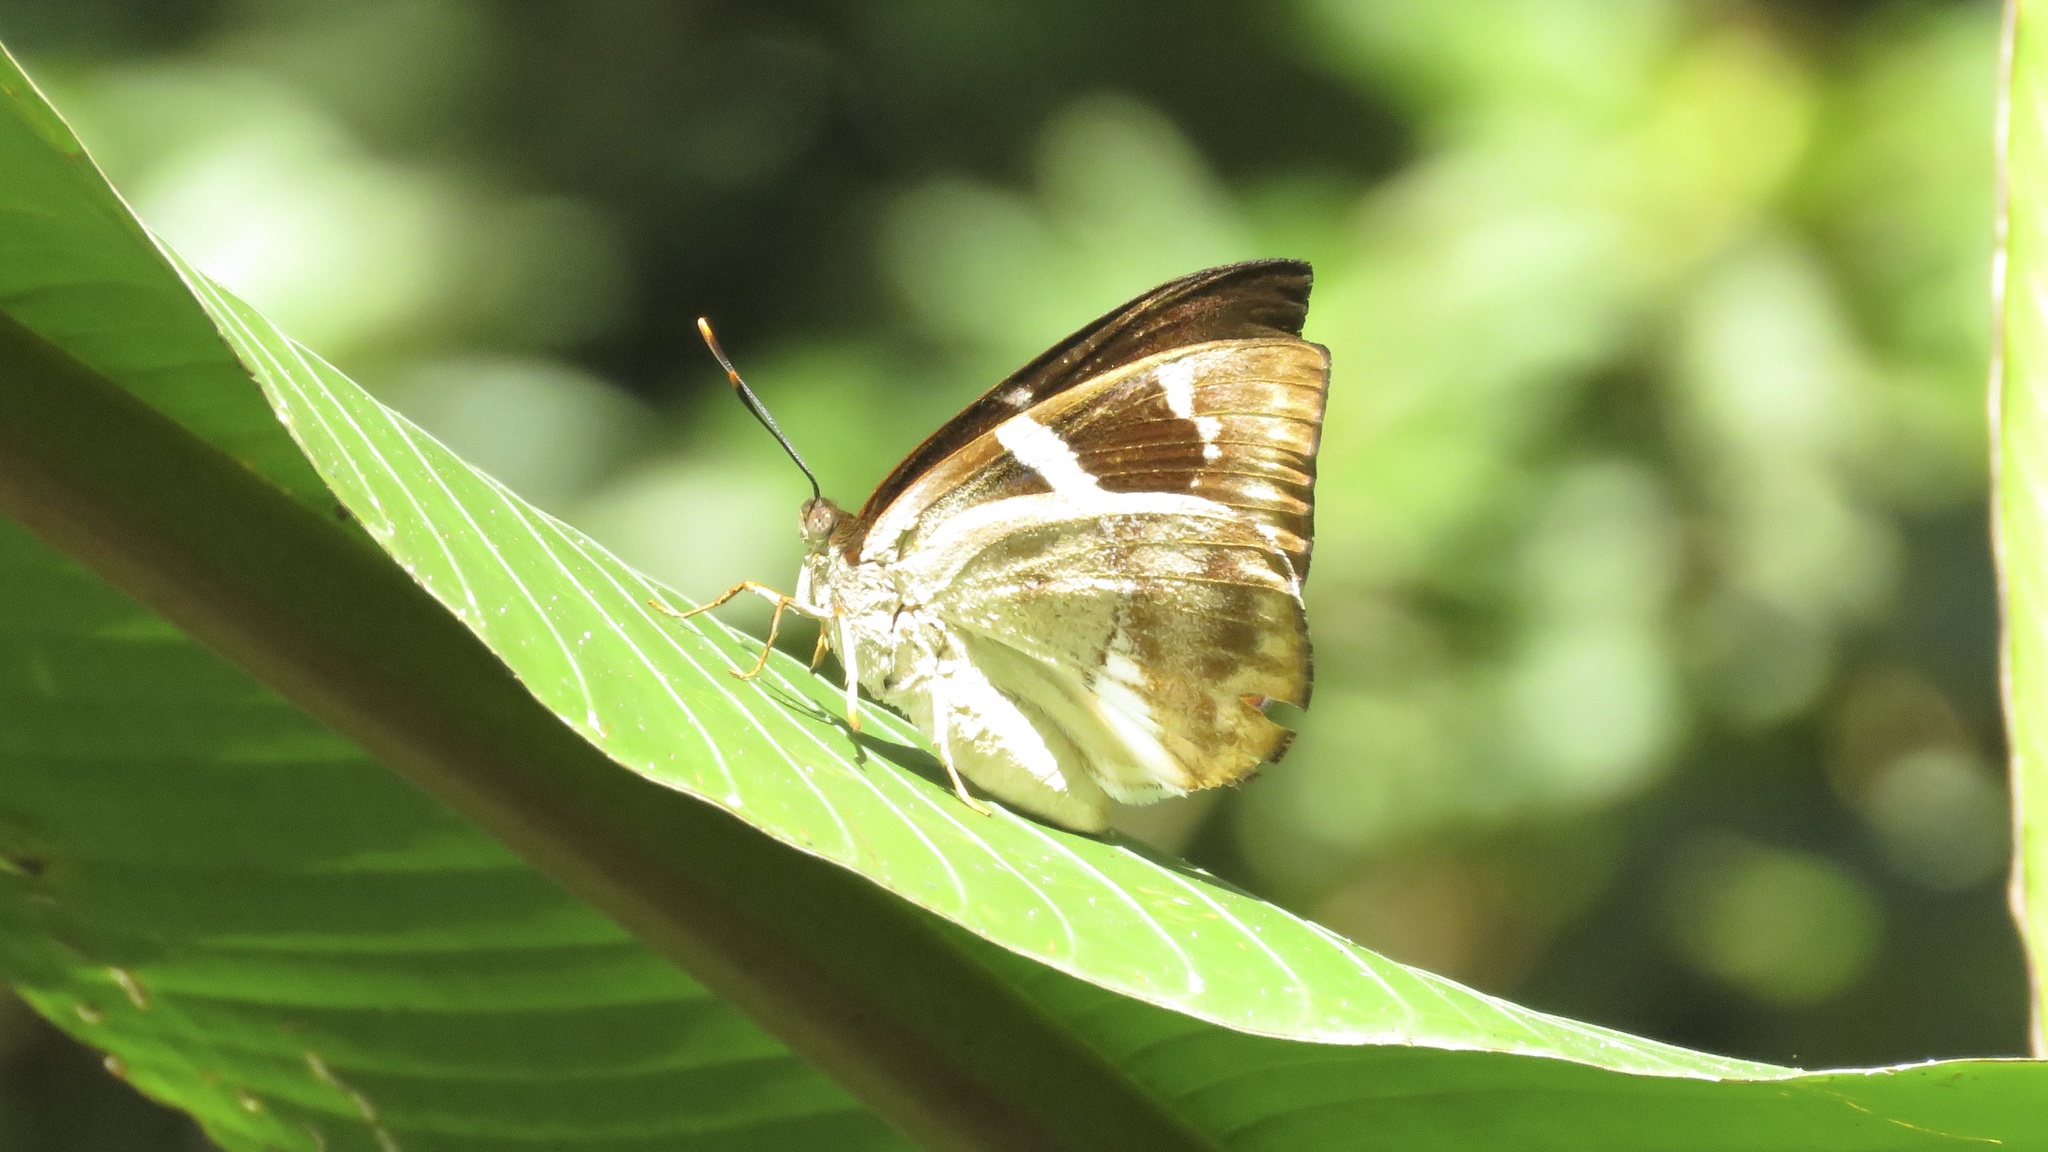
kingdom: Animalia
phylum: Arthropoda
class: Insecta
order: Lepidoptera
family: Castniidae
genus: Castniomera
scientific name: Castniomera drucei
